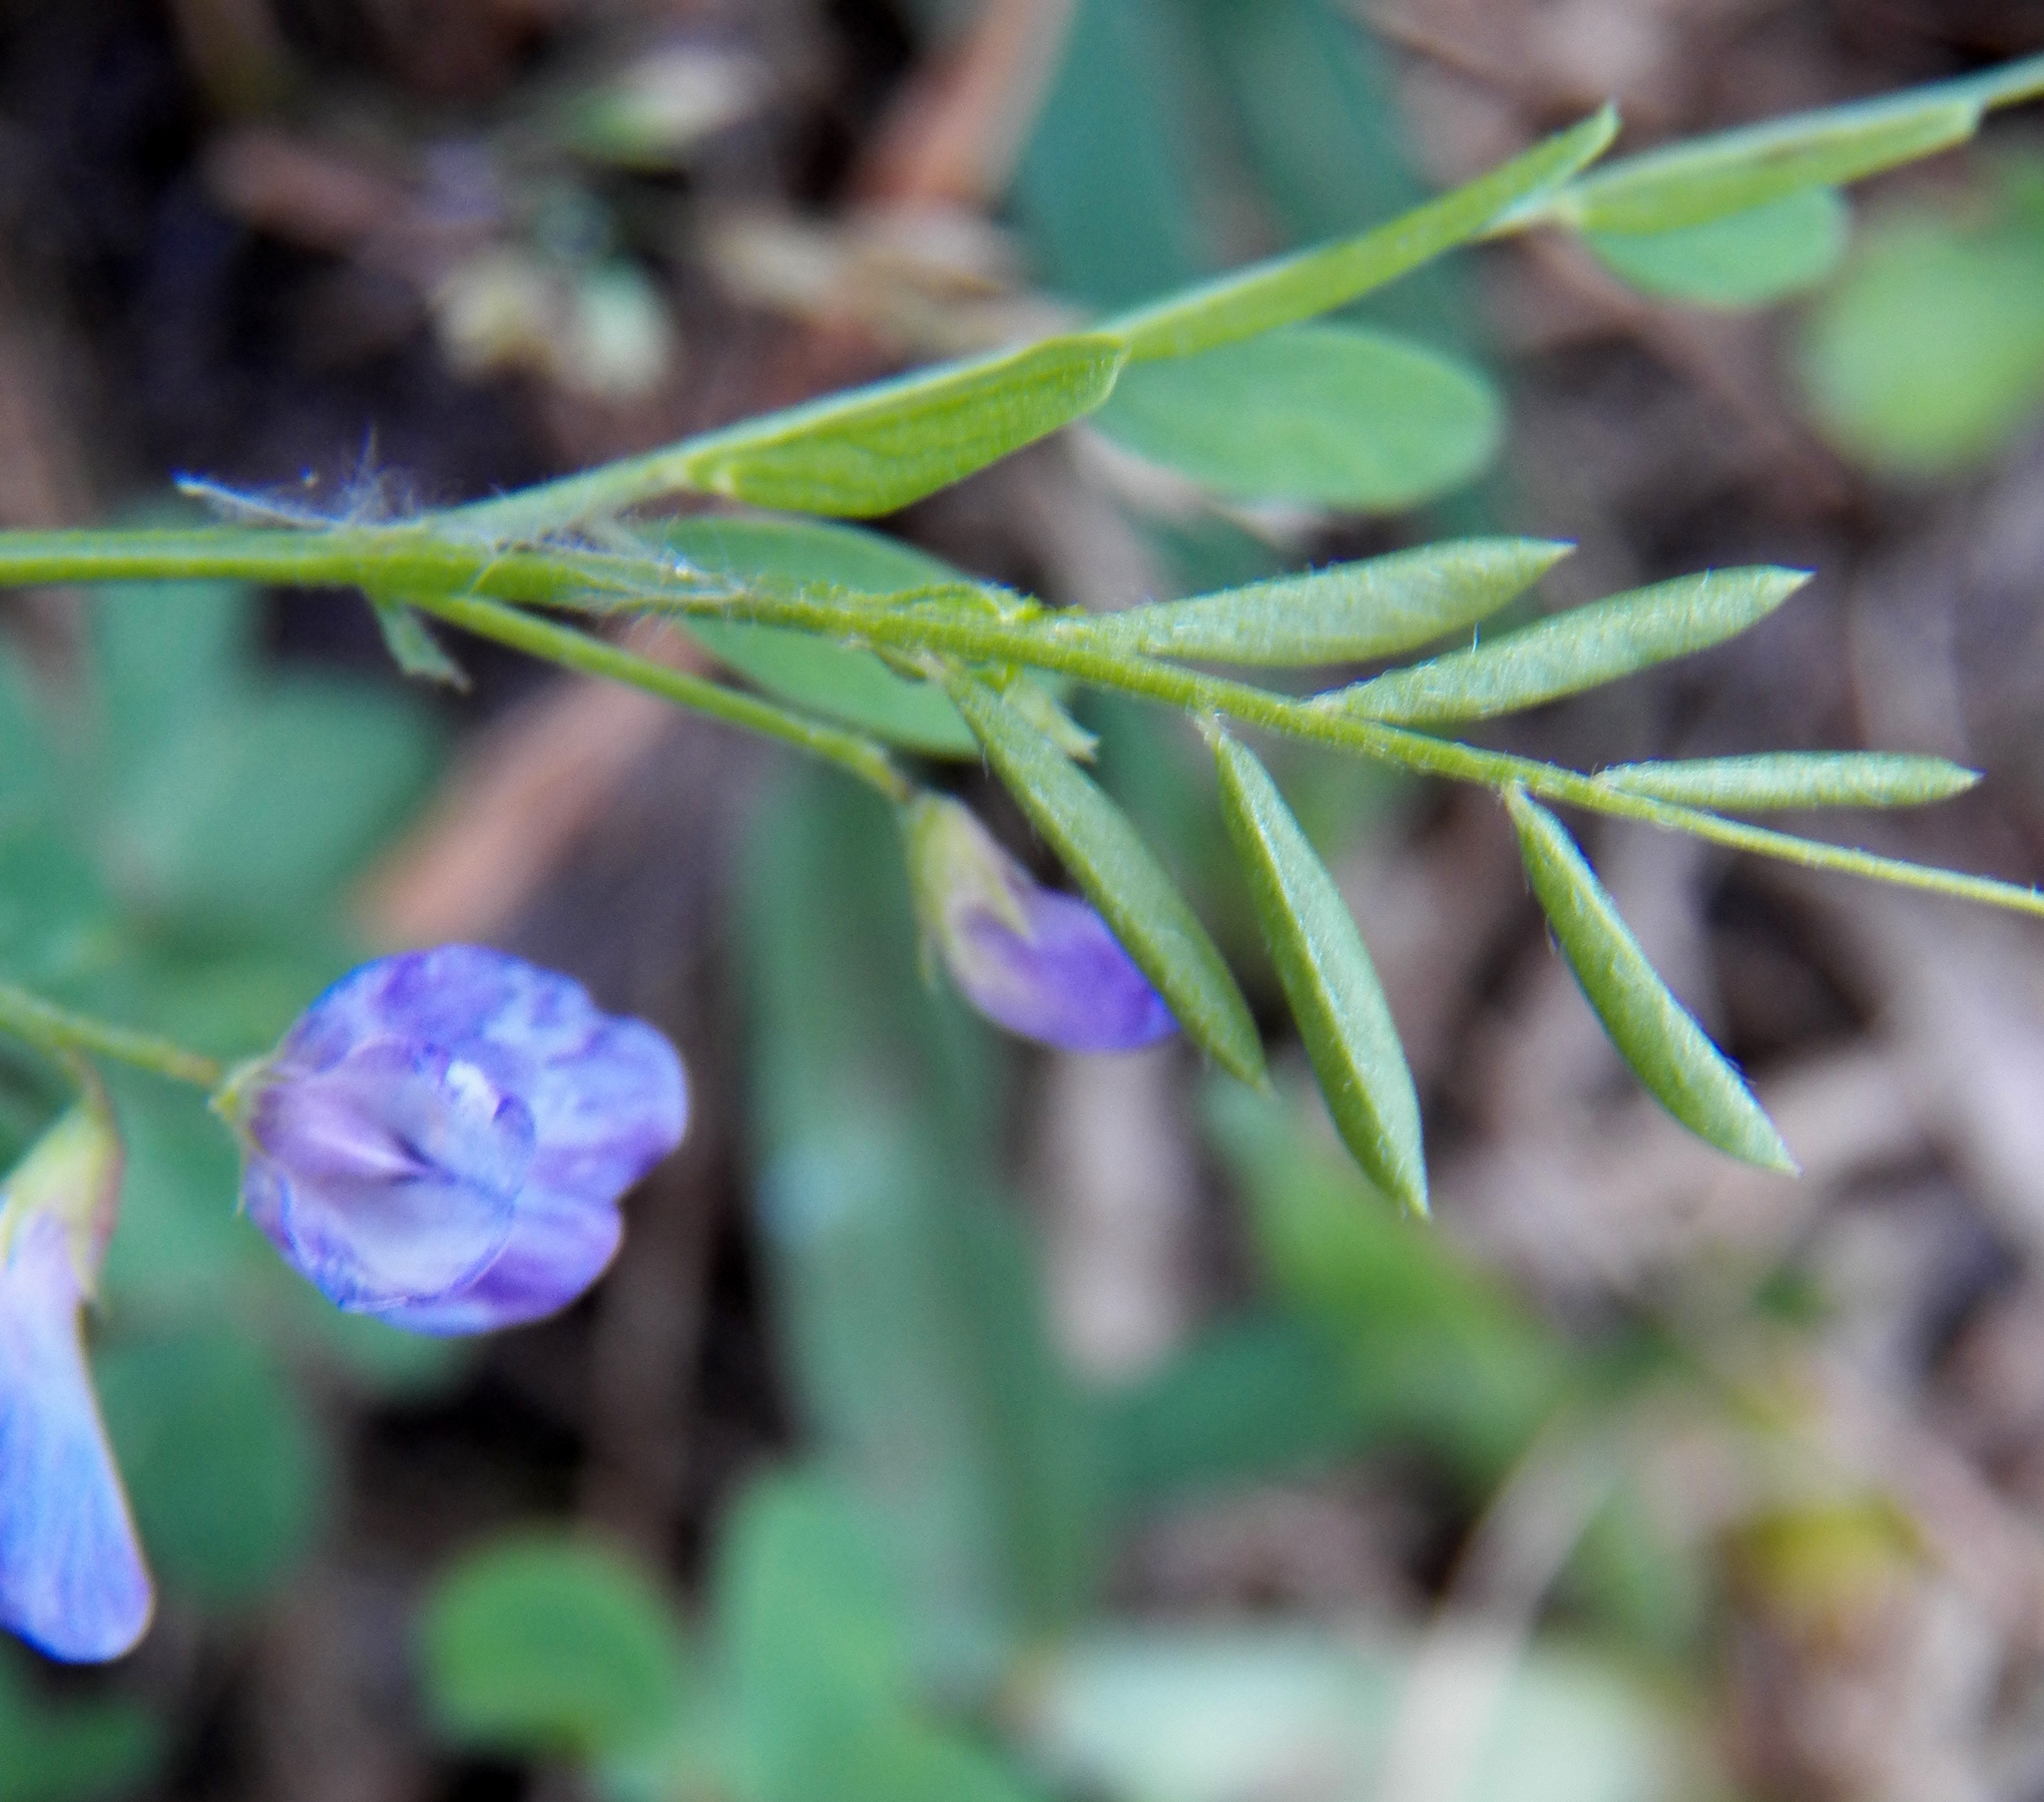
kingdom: Plantae
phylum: Tracheophyta
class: Magnoliopsida
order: Fabales
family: Fabaceae
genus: Vicia
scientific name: Vicia ludoviciana
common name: Louisiana vetch
